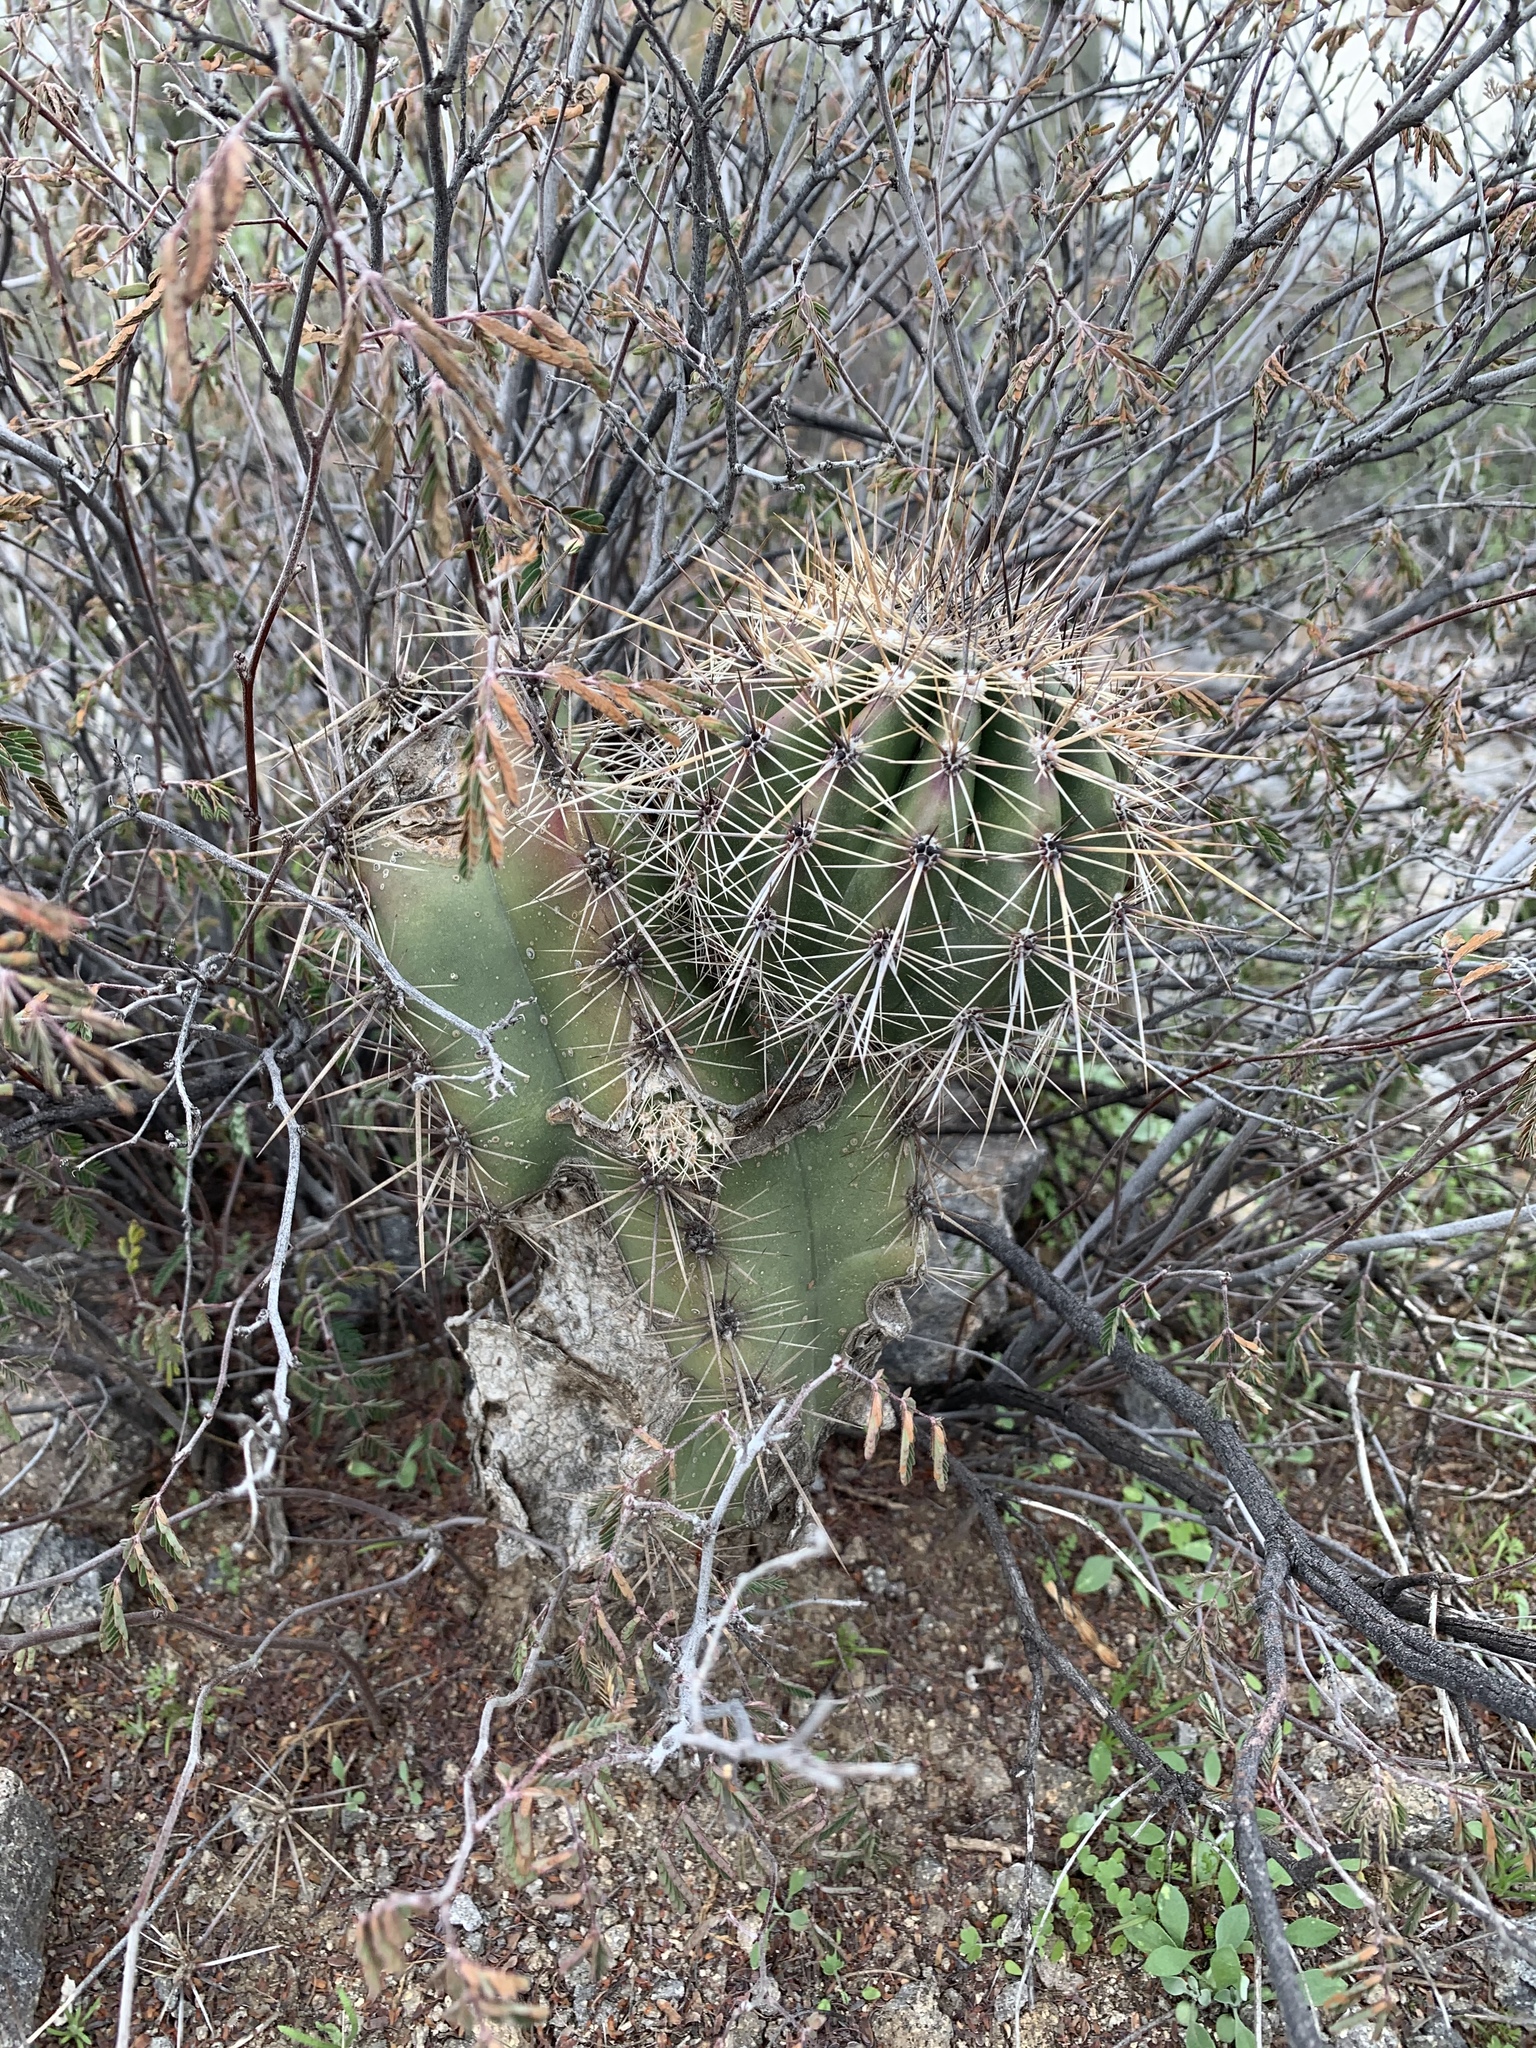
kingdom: Plantae
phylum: Tracheophyta
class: Magnoliopsida
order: Caryophyllales
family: Cactaceae
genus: Carnegiea
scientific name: Carnegiea gigantea
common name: Saguaro
